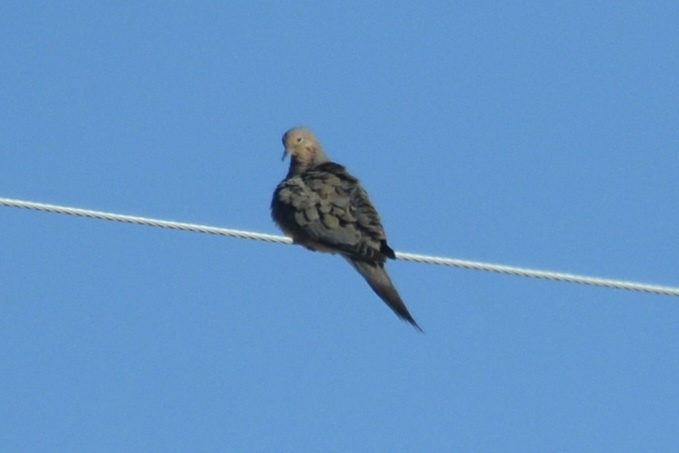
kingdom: Animalia
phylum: Chordata
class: Aves
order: Columbiformes
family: Columbidae
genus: Zenaida
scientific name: Zenaida macroura
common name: Mourning dove
